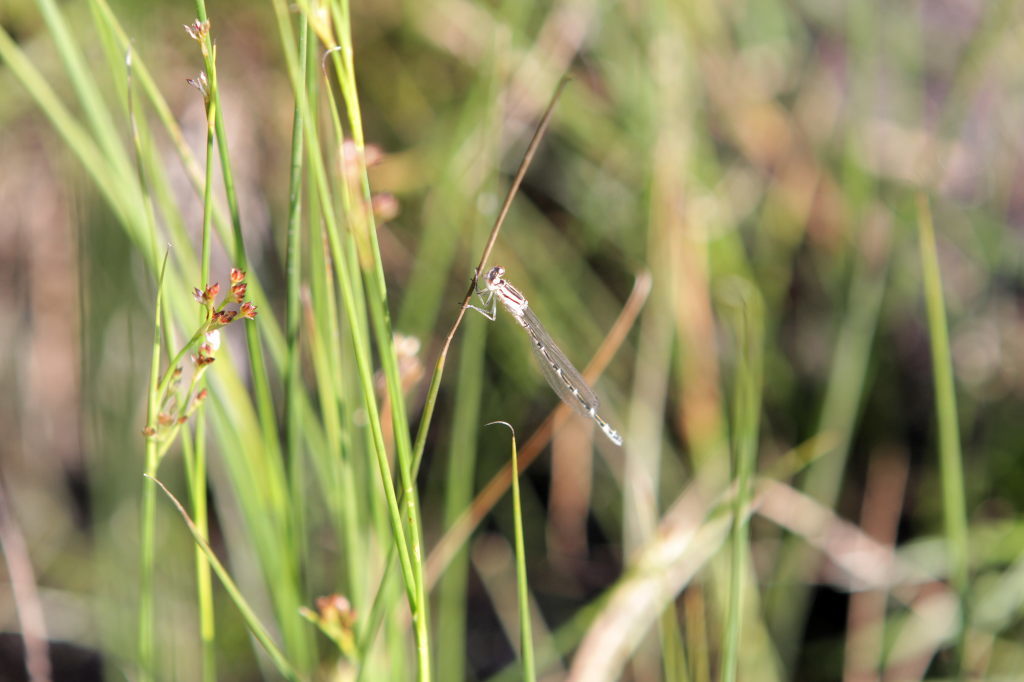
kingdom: Animalia
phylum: Arthropoda
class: Insecta
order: Odonata
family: Coenagrionidae
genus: Enallagma
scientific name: Enallagma cyathigerum
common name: Common blue damselfly
